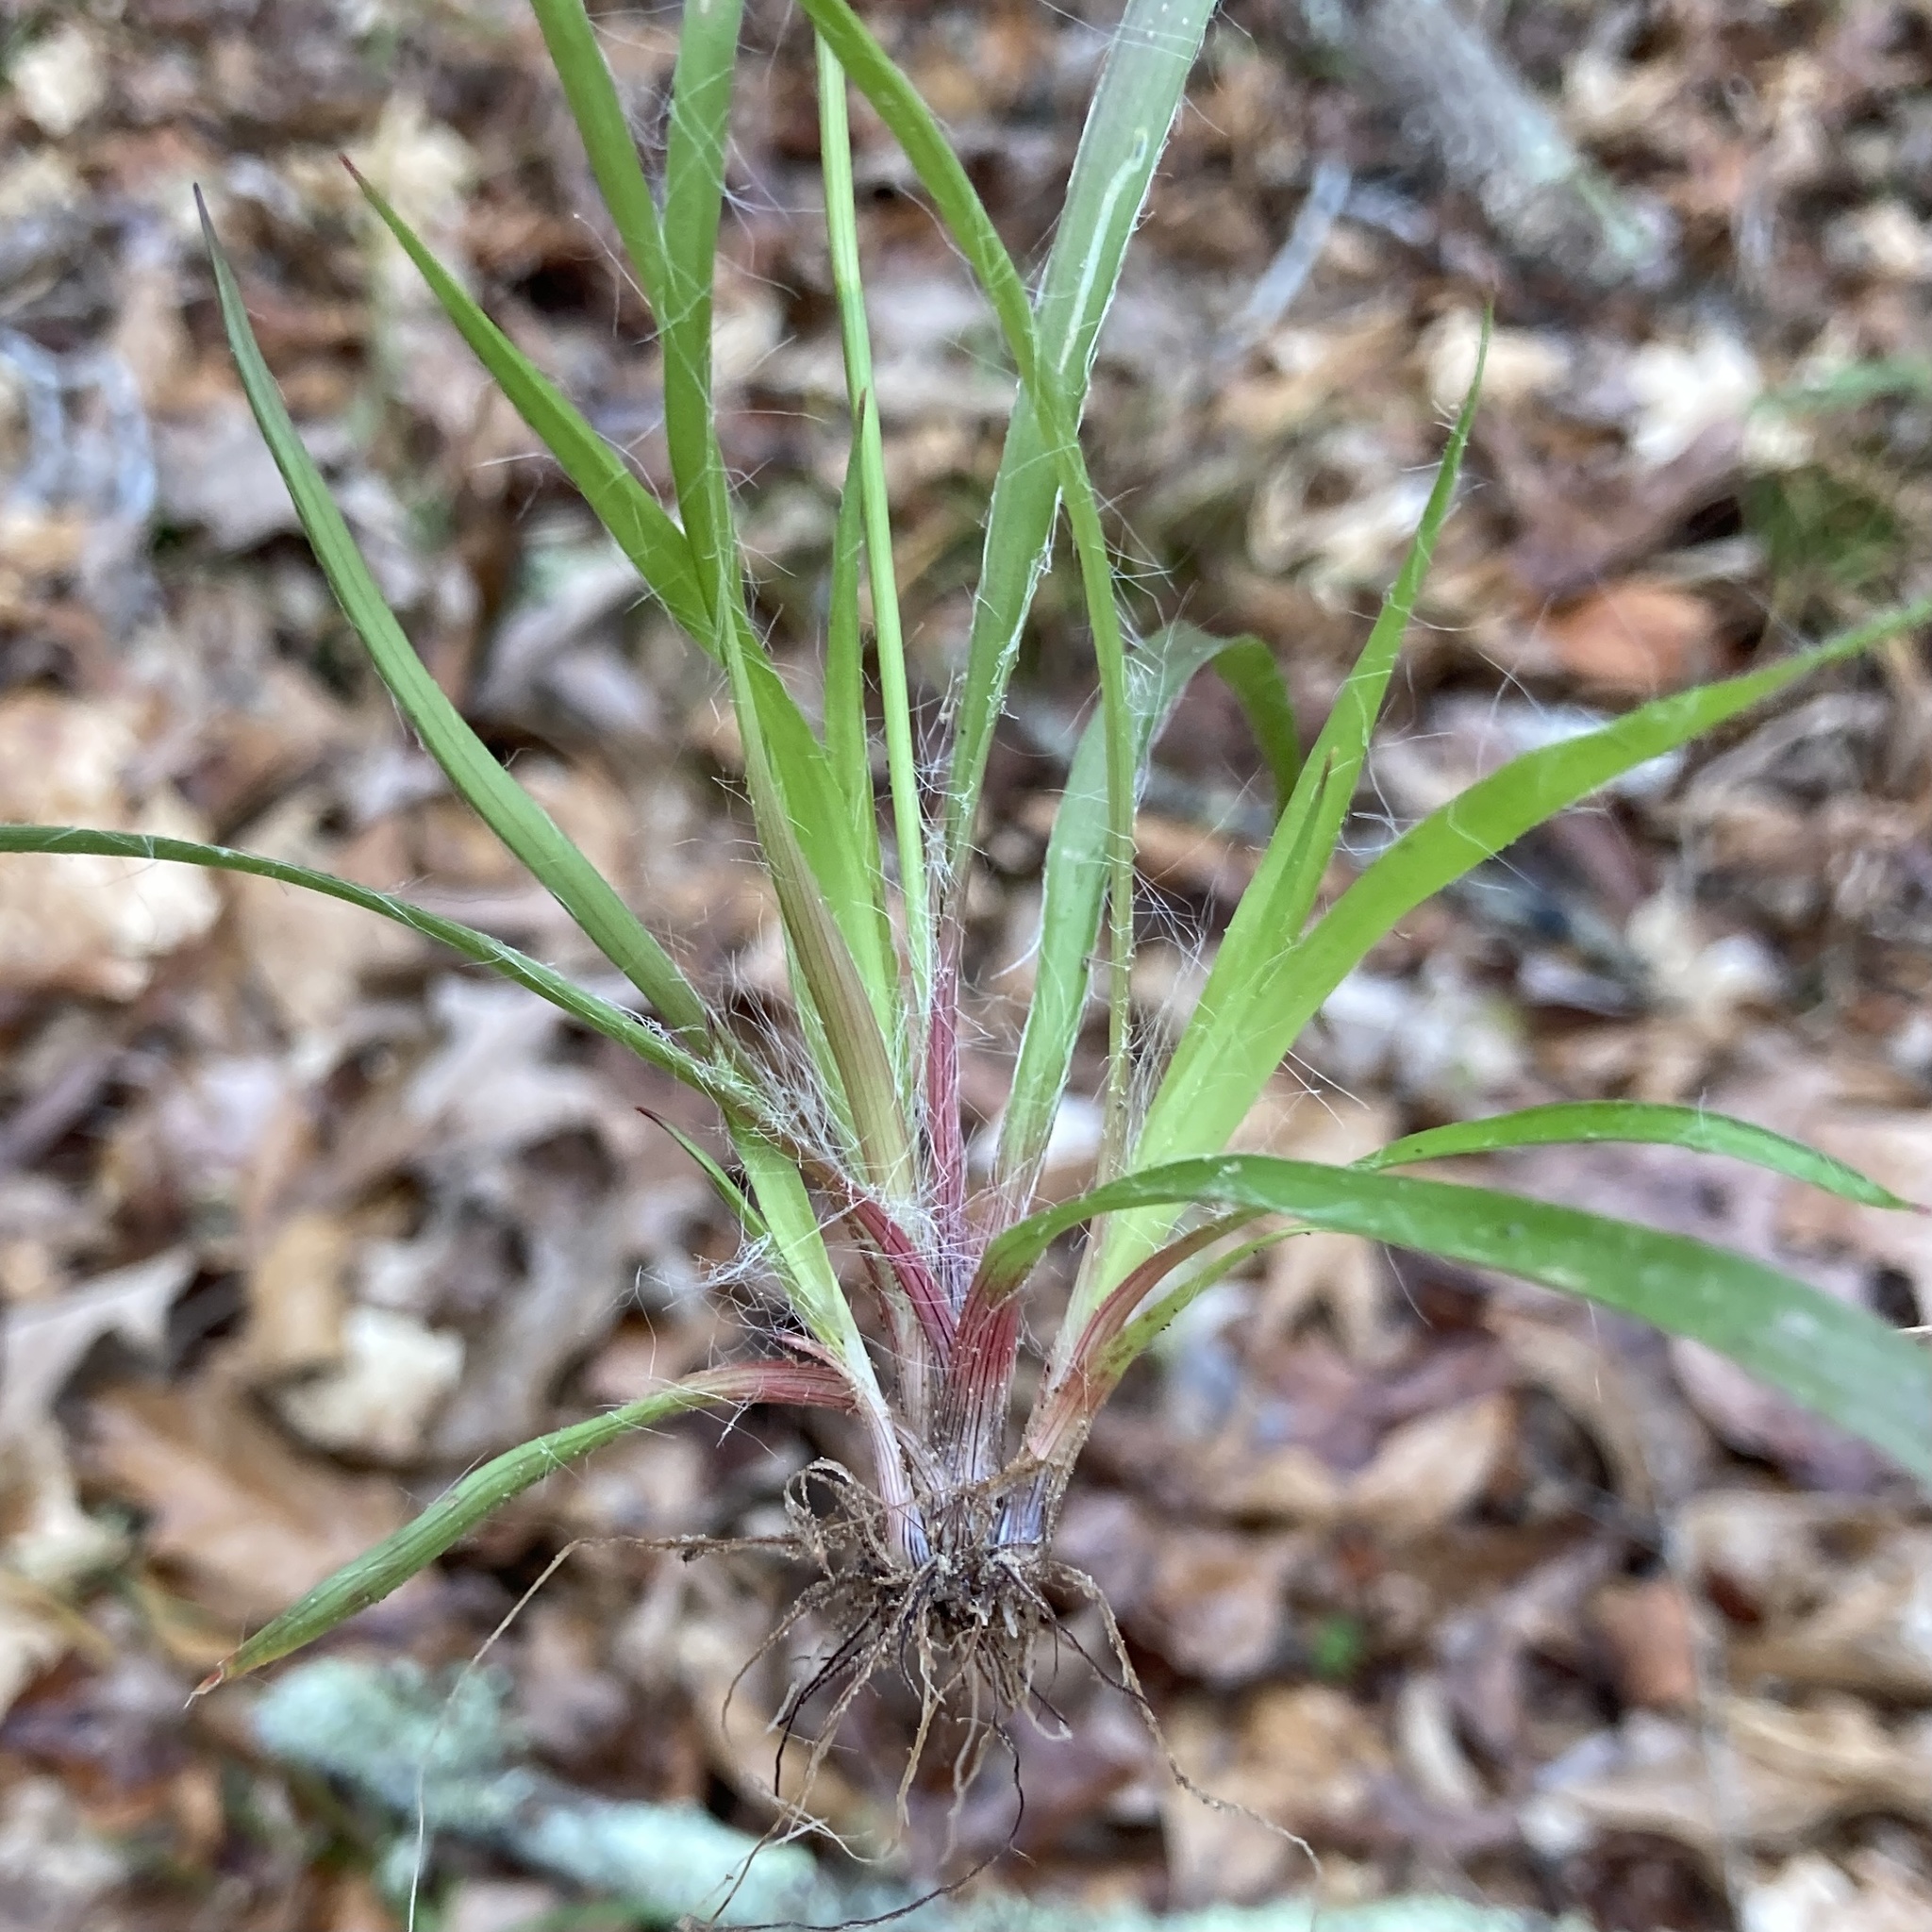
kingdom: Plantae
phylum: Tracheophyta
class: Liliopsida
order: Poales
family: Juncaceae
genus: Luzula
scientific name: Luzula echinata
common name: Hedgehog woodrush
